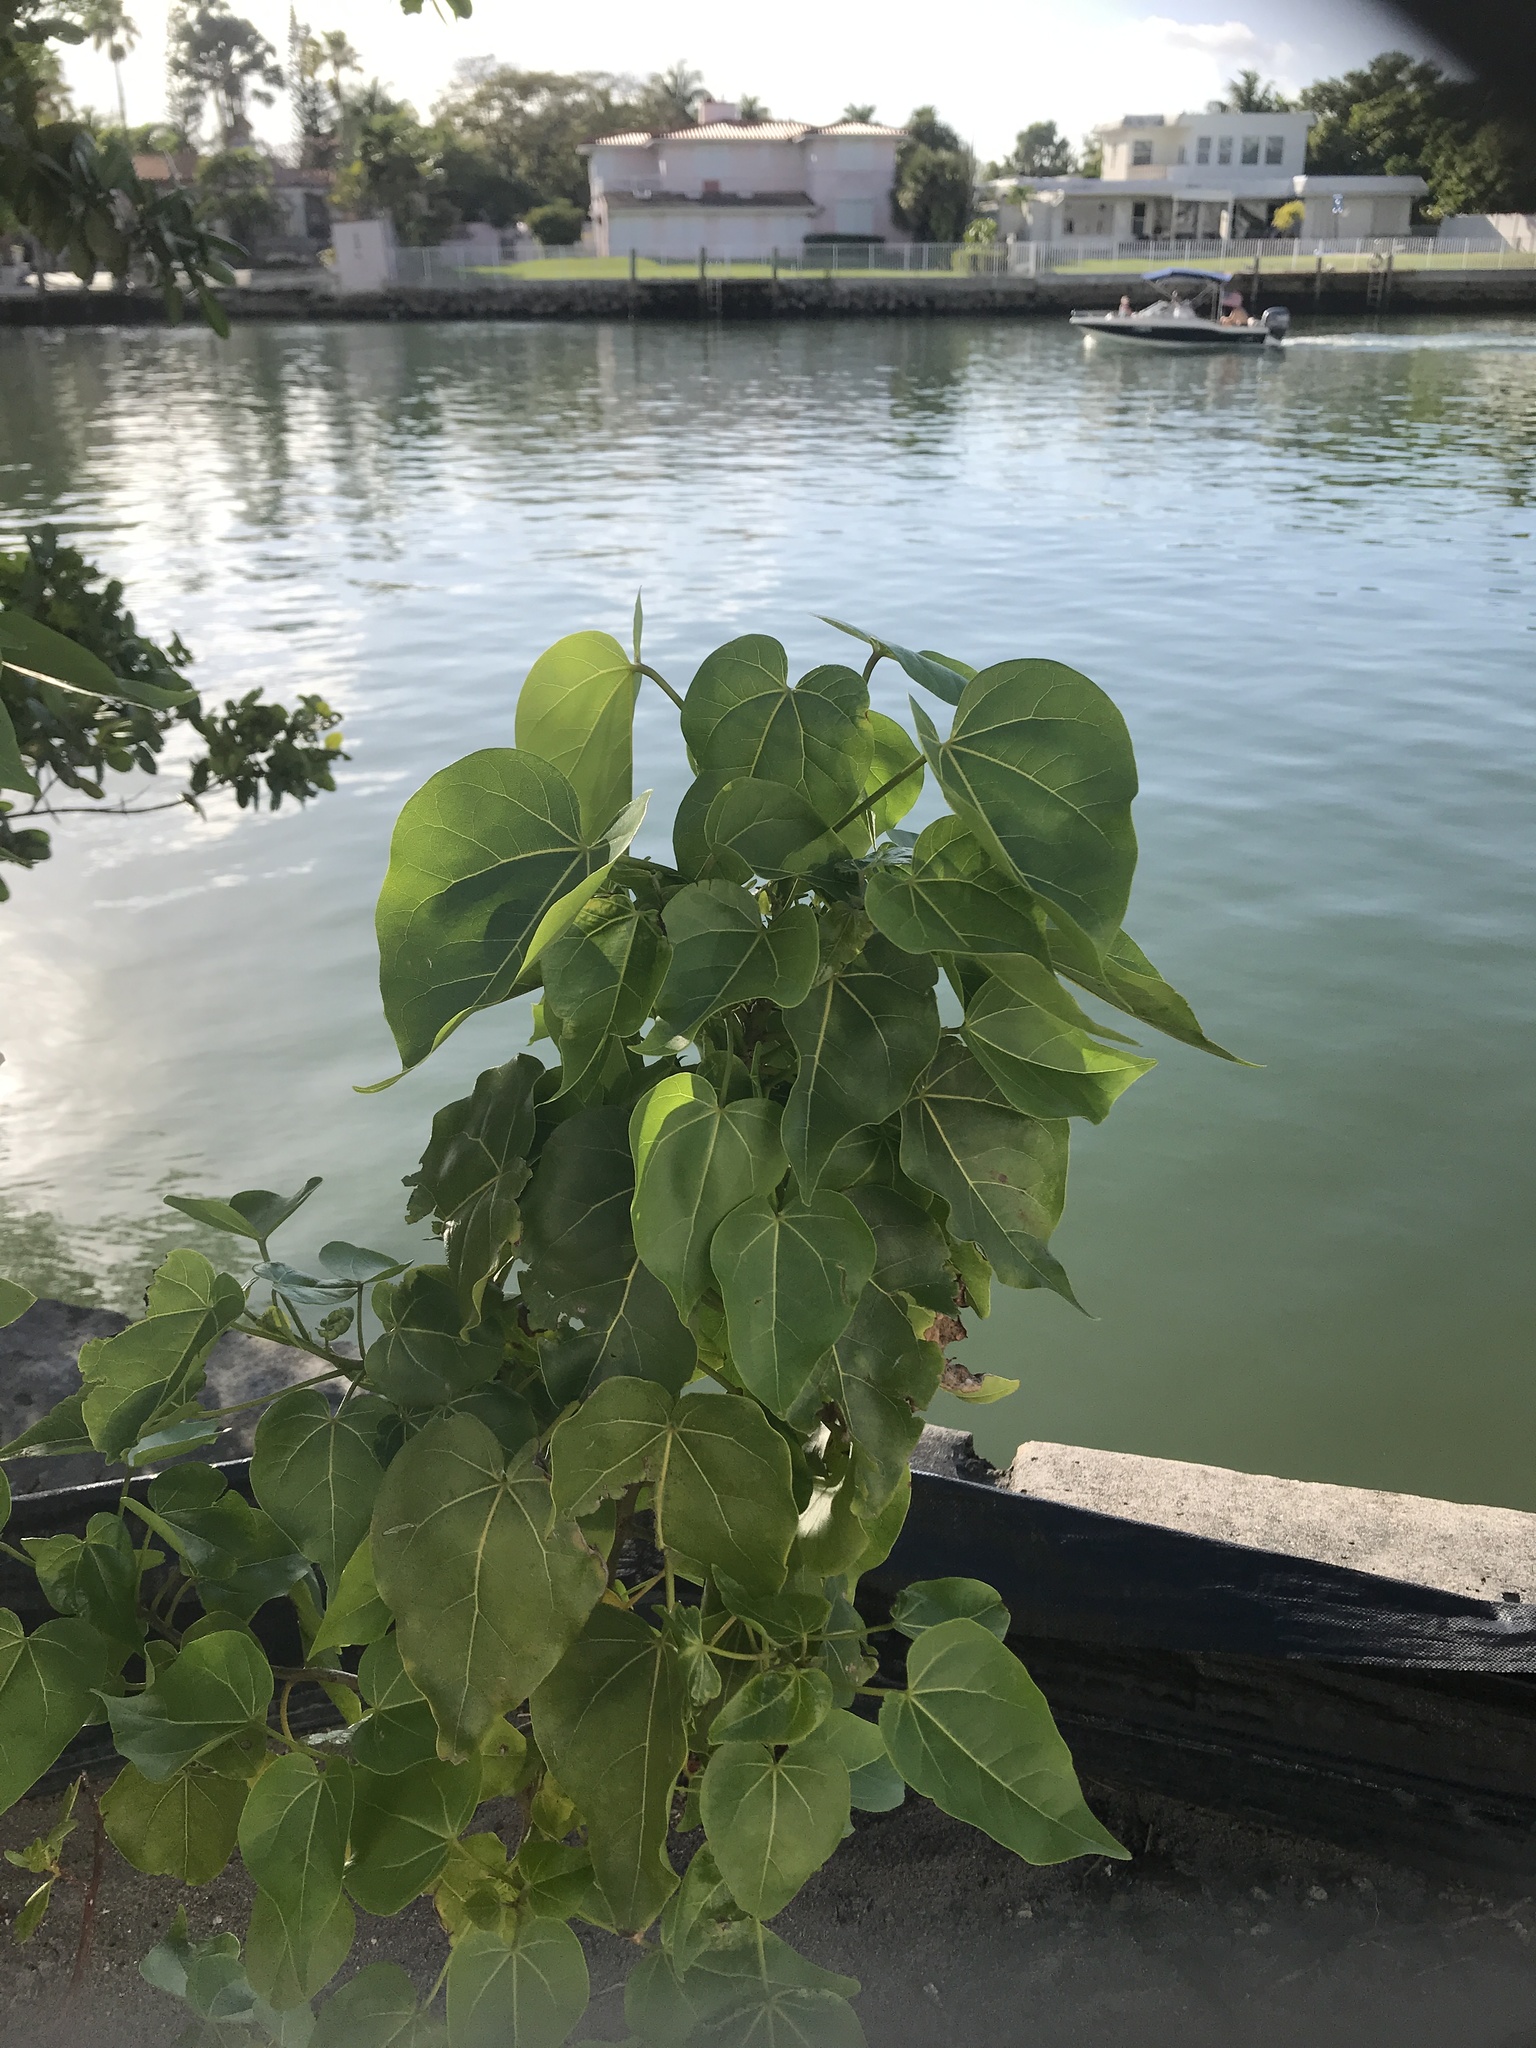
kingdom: Plantae
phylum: Tracheophyta
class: Magnoliopsida
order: Malvales
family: Malvaceae
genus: Thespesia
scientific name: Thespesia populnea
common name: Seaside mahoe
